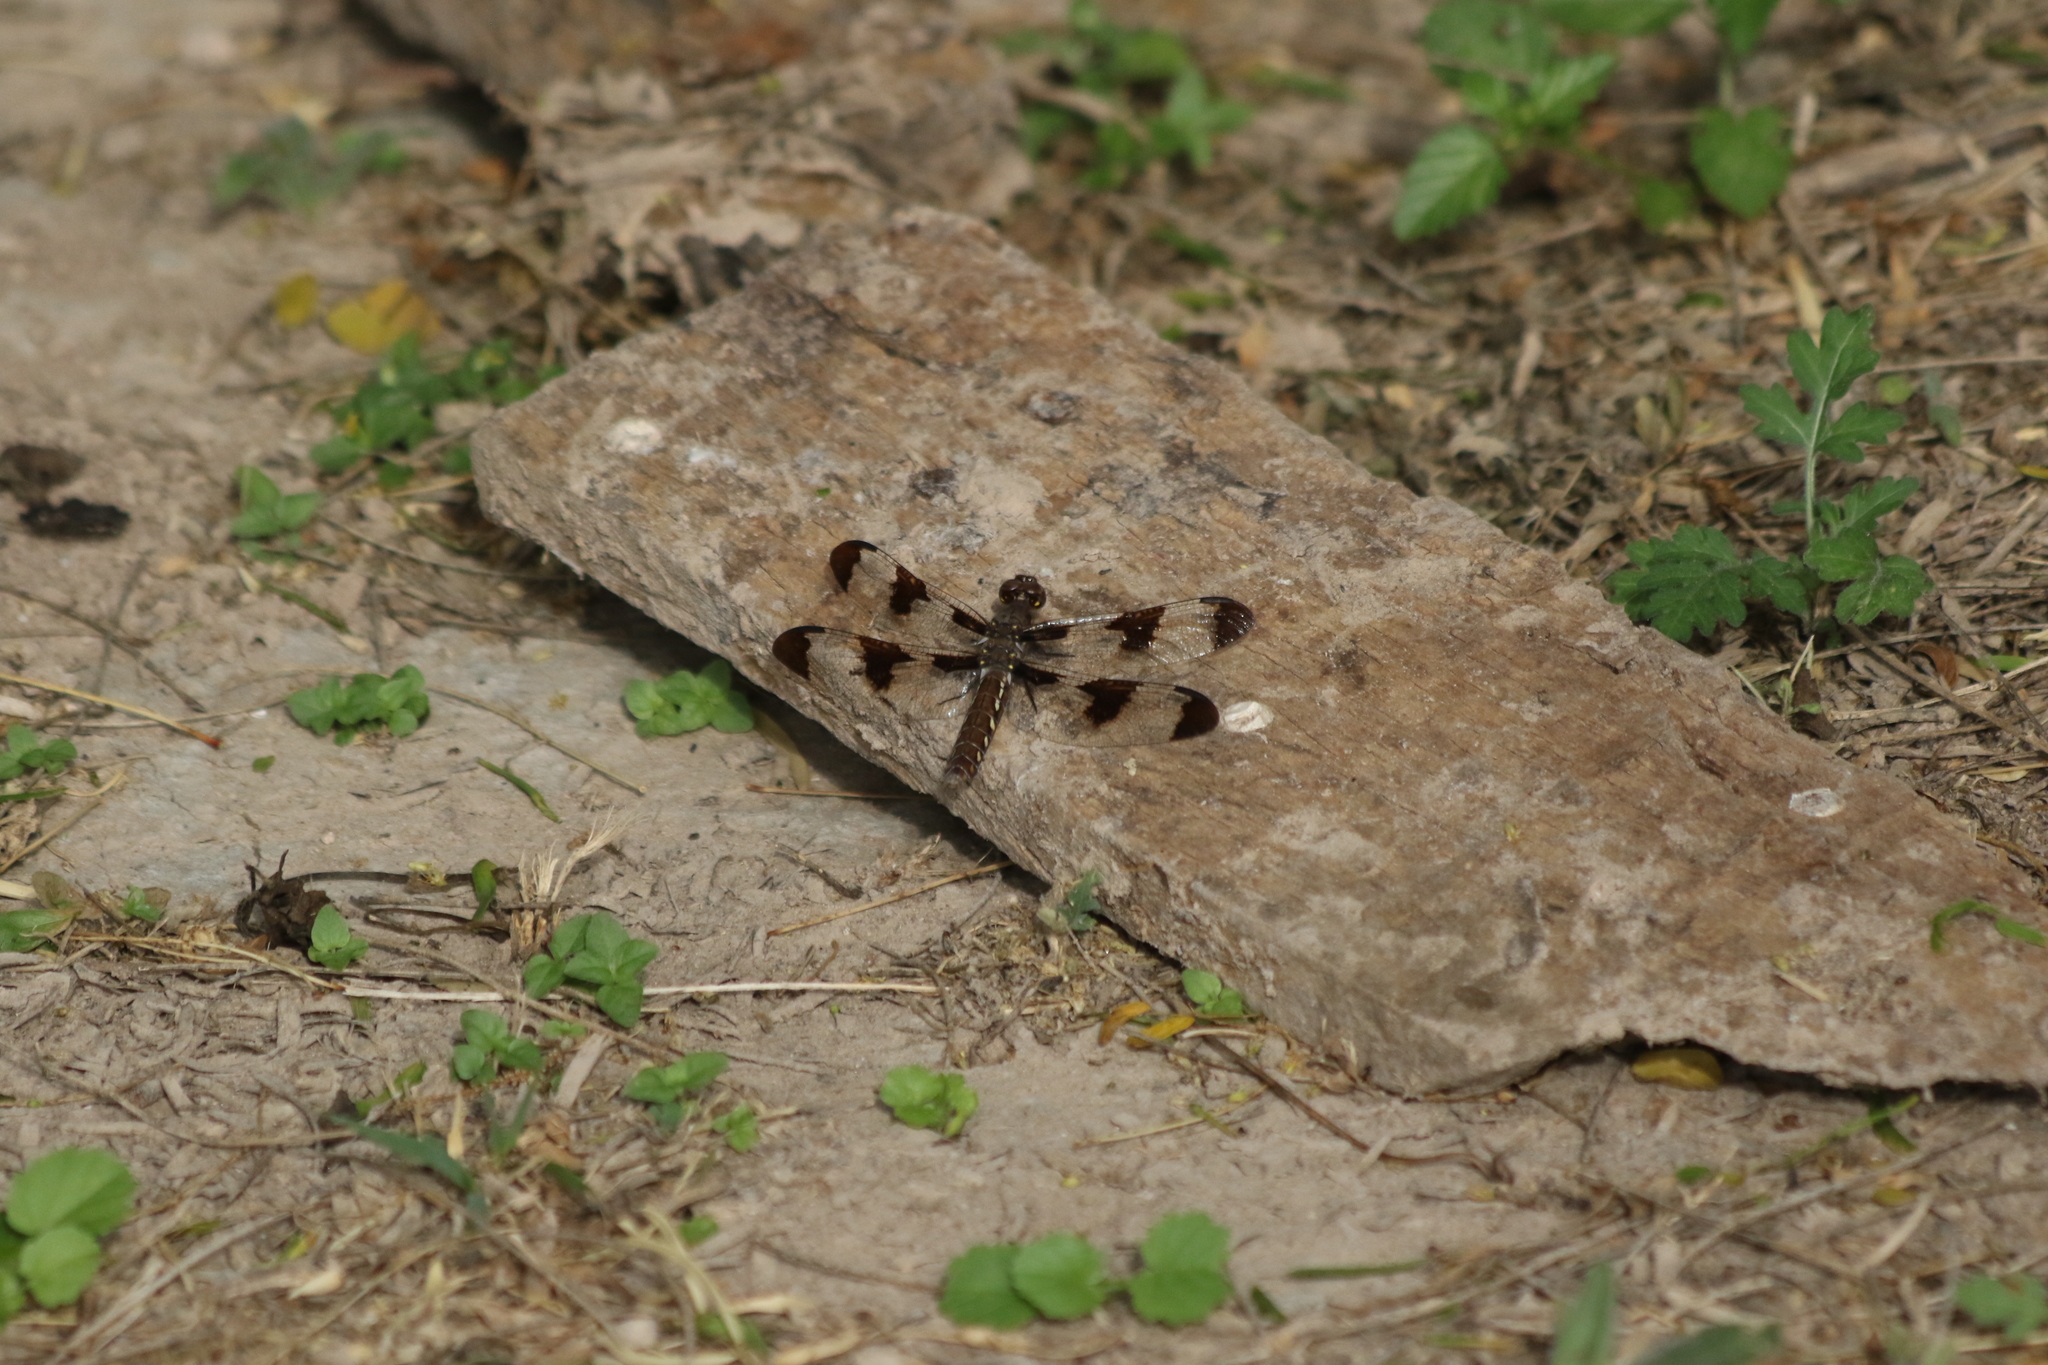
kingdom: Animalia
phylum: Arthropoda
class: Insecta
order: Odonata
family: Libellulidae
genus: Plathemis
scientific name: Plathemis lydia
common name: Common whitetail
